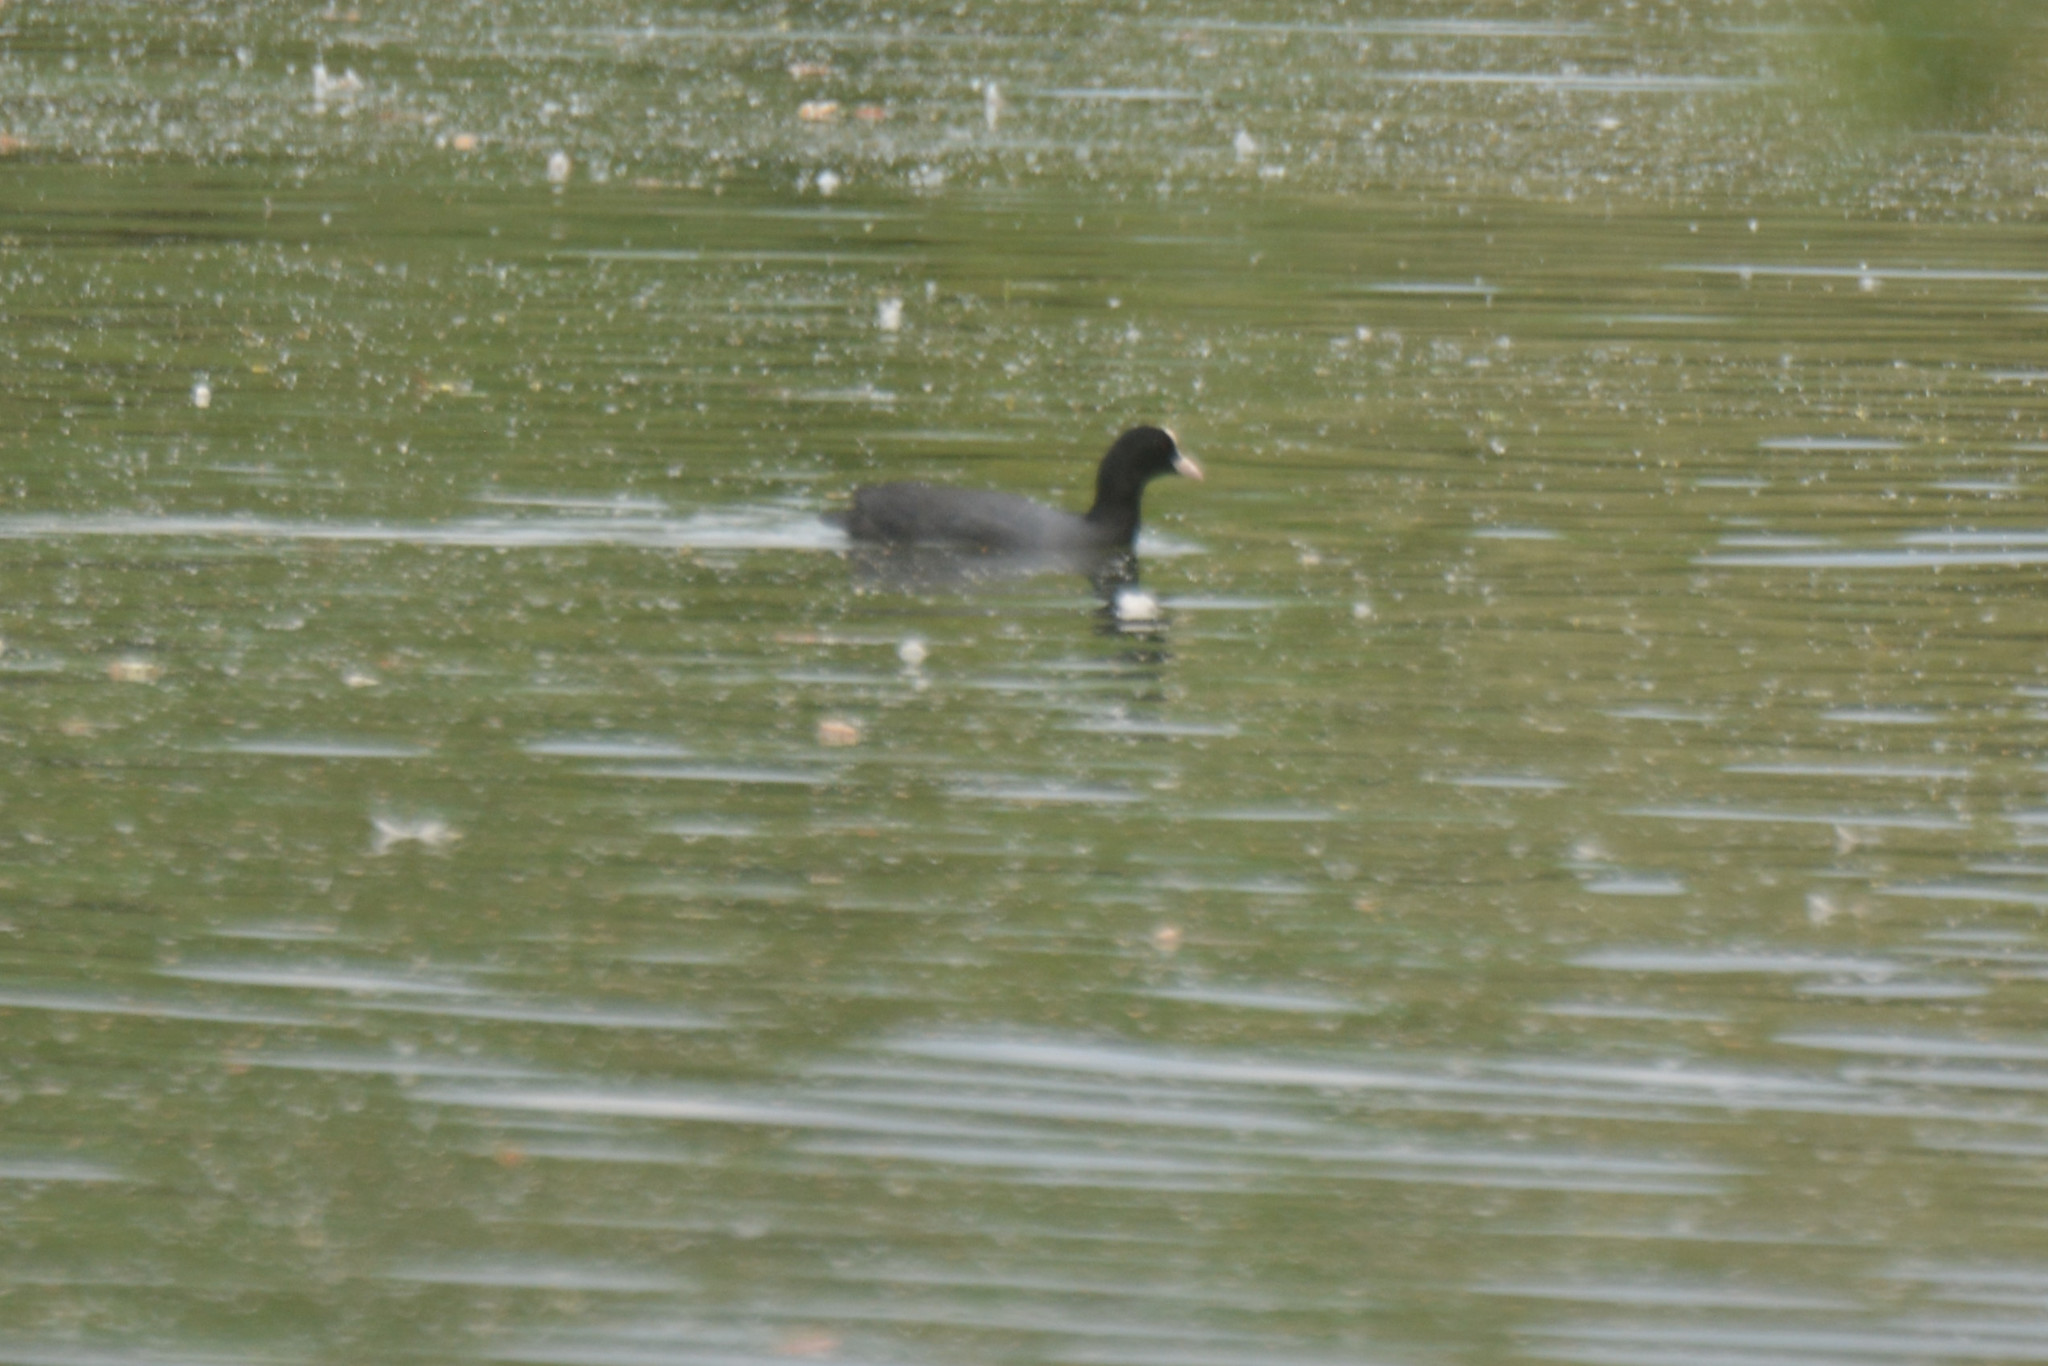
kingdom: Animalia
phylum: Chordata
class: Aves
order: Gruiformes
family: Rallidae
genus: Fulica
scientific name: Fulica atra
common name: Eurasian coot
